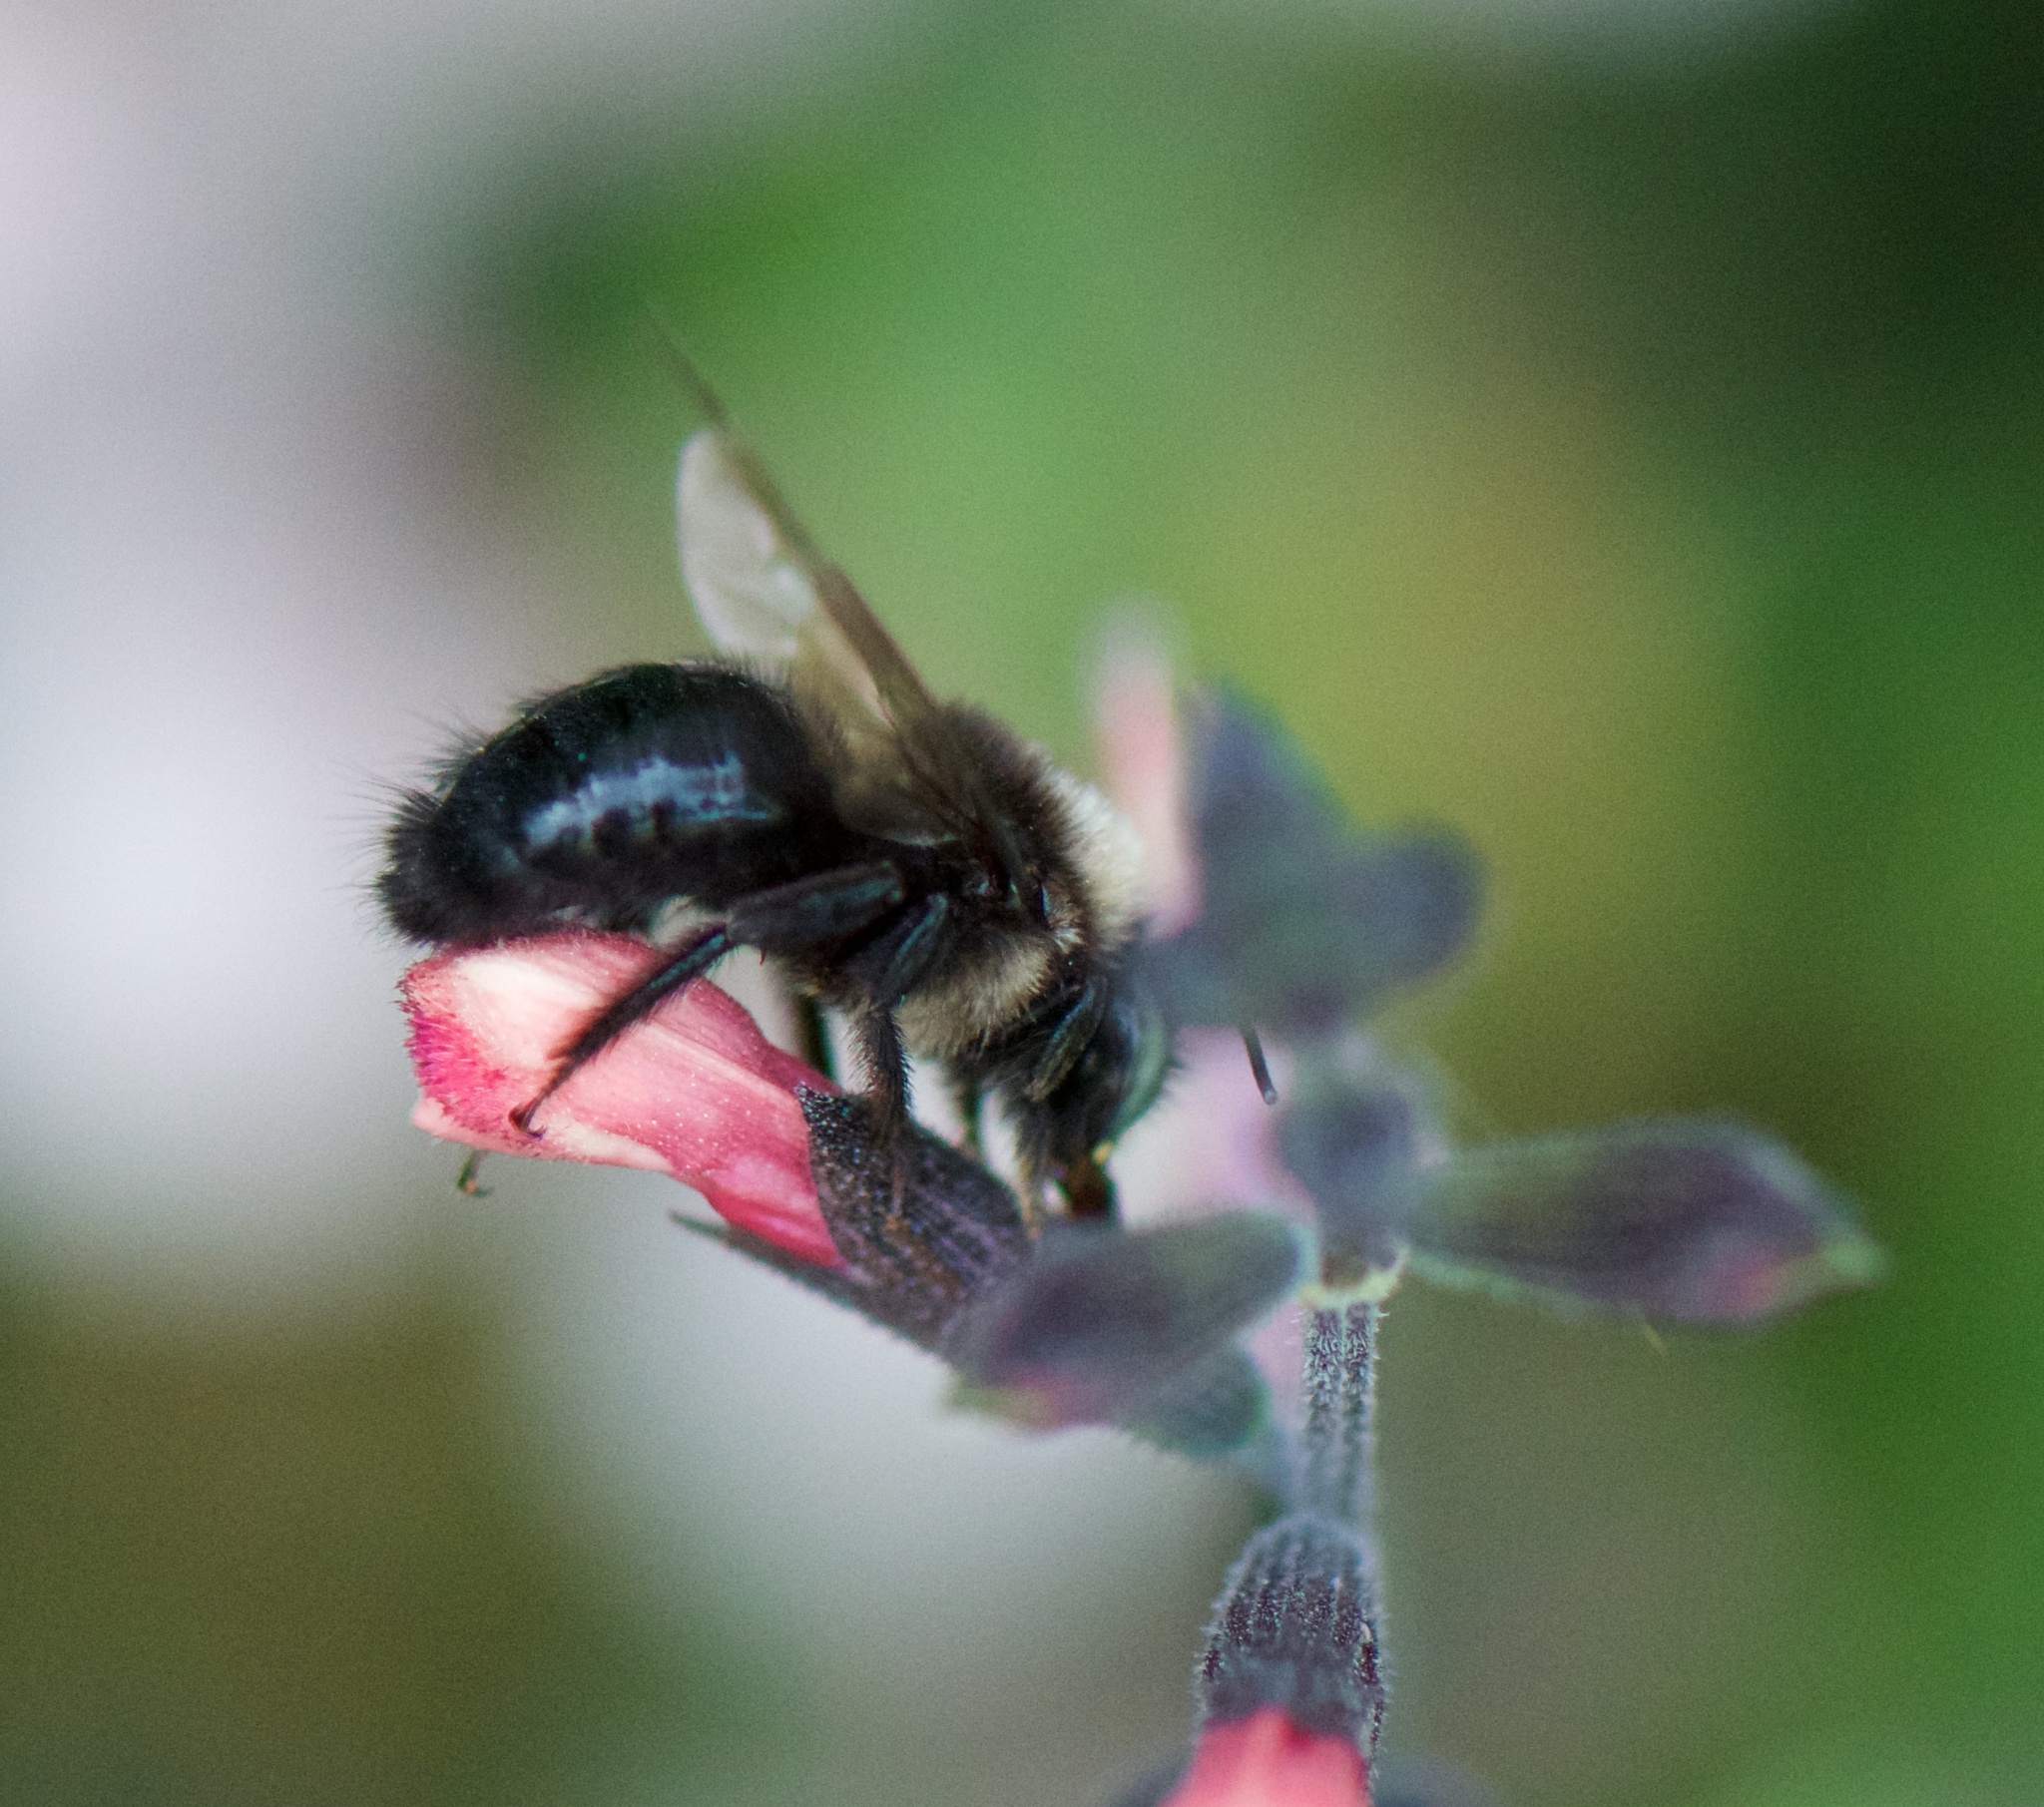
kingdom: Animalia
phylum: Arthropoda
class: Insecta
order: Hymenoptera
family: Apidae
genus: Xylocopa
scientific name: Xylocopa tabaniformis
